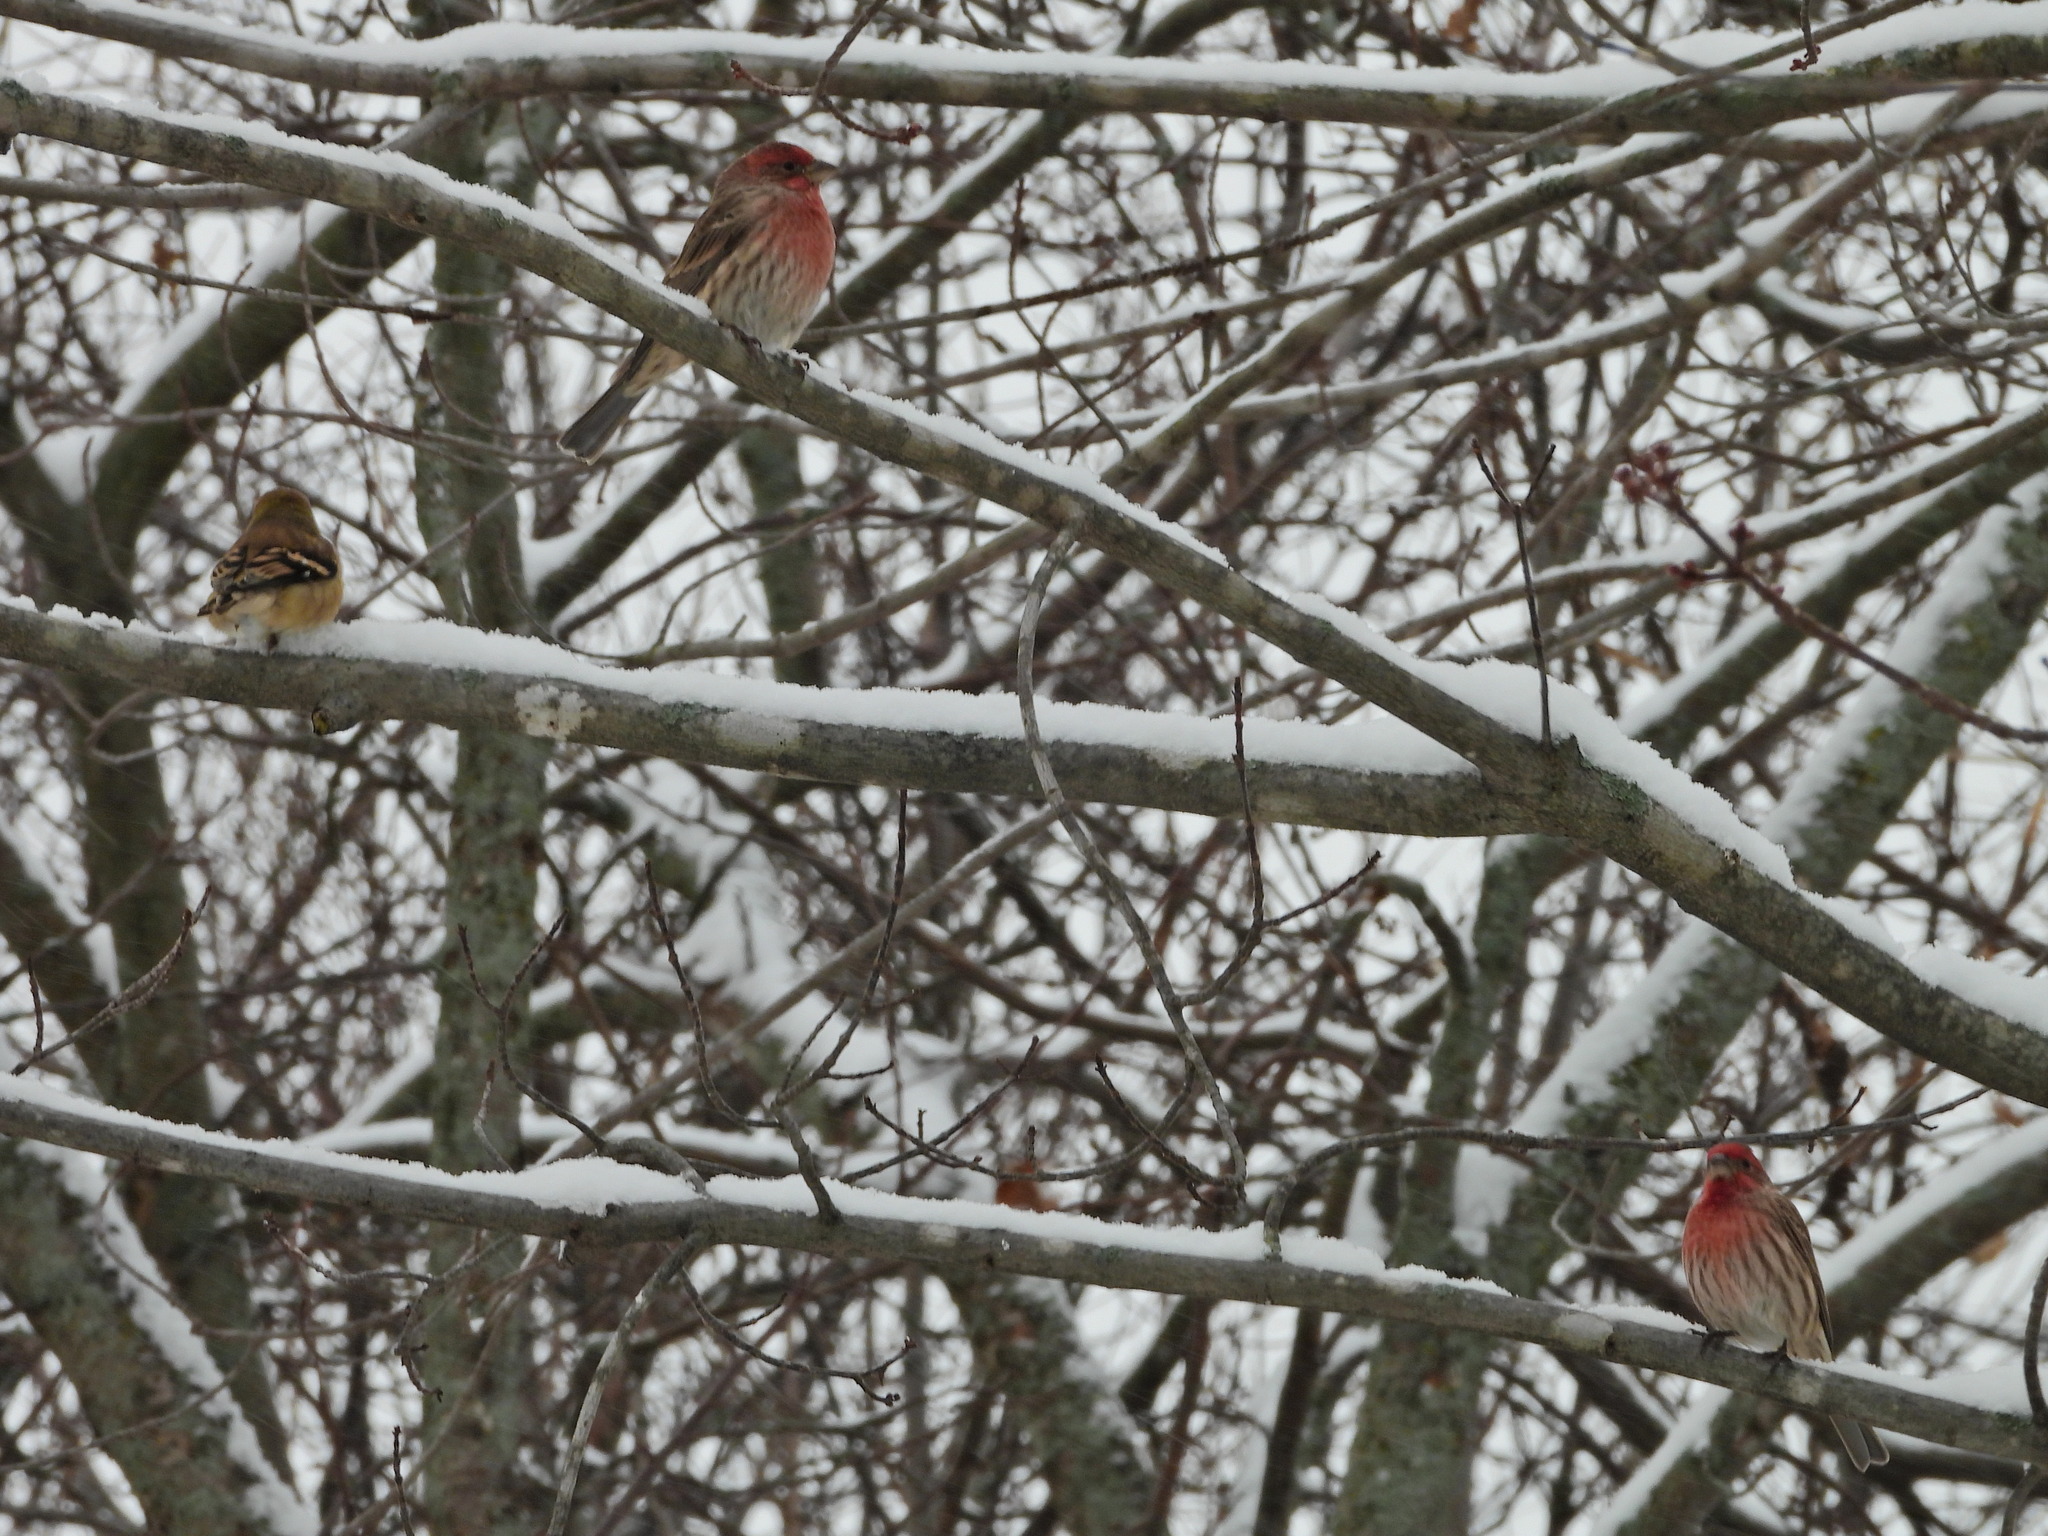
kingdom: Animalia
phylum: Chordata
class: Aves
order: Passeriformes
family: Fringillidae
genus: Haemorhous
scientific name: Haemorhous mexicanus
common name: House finch
